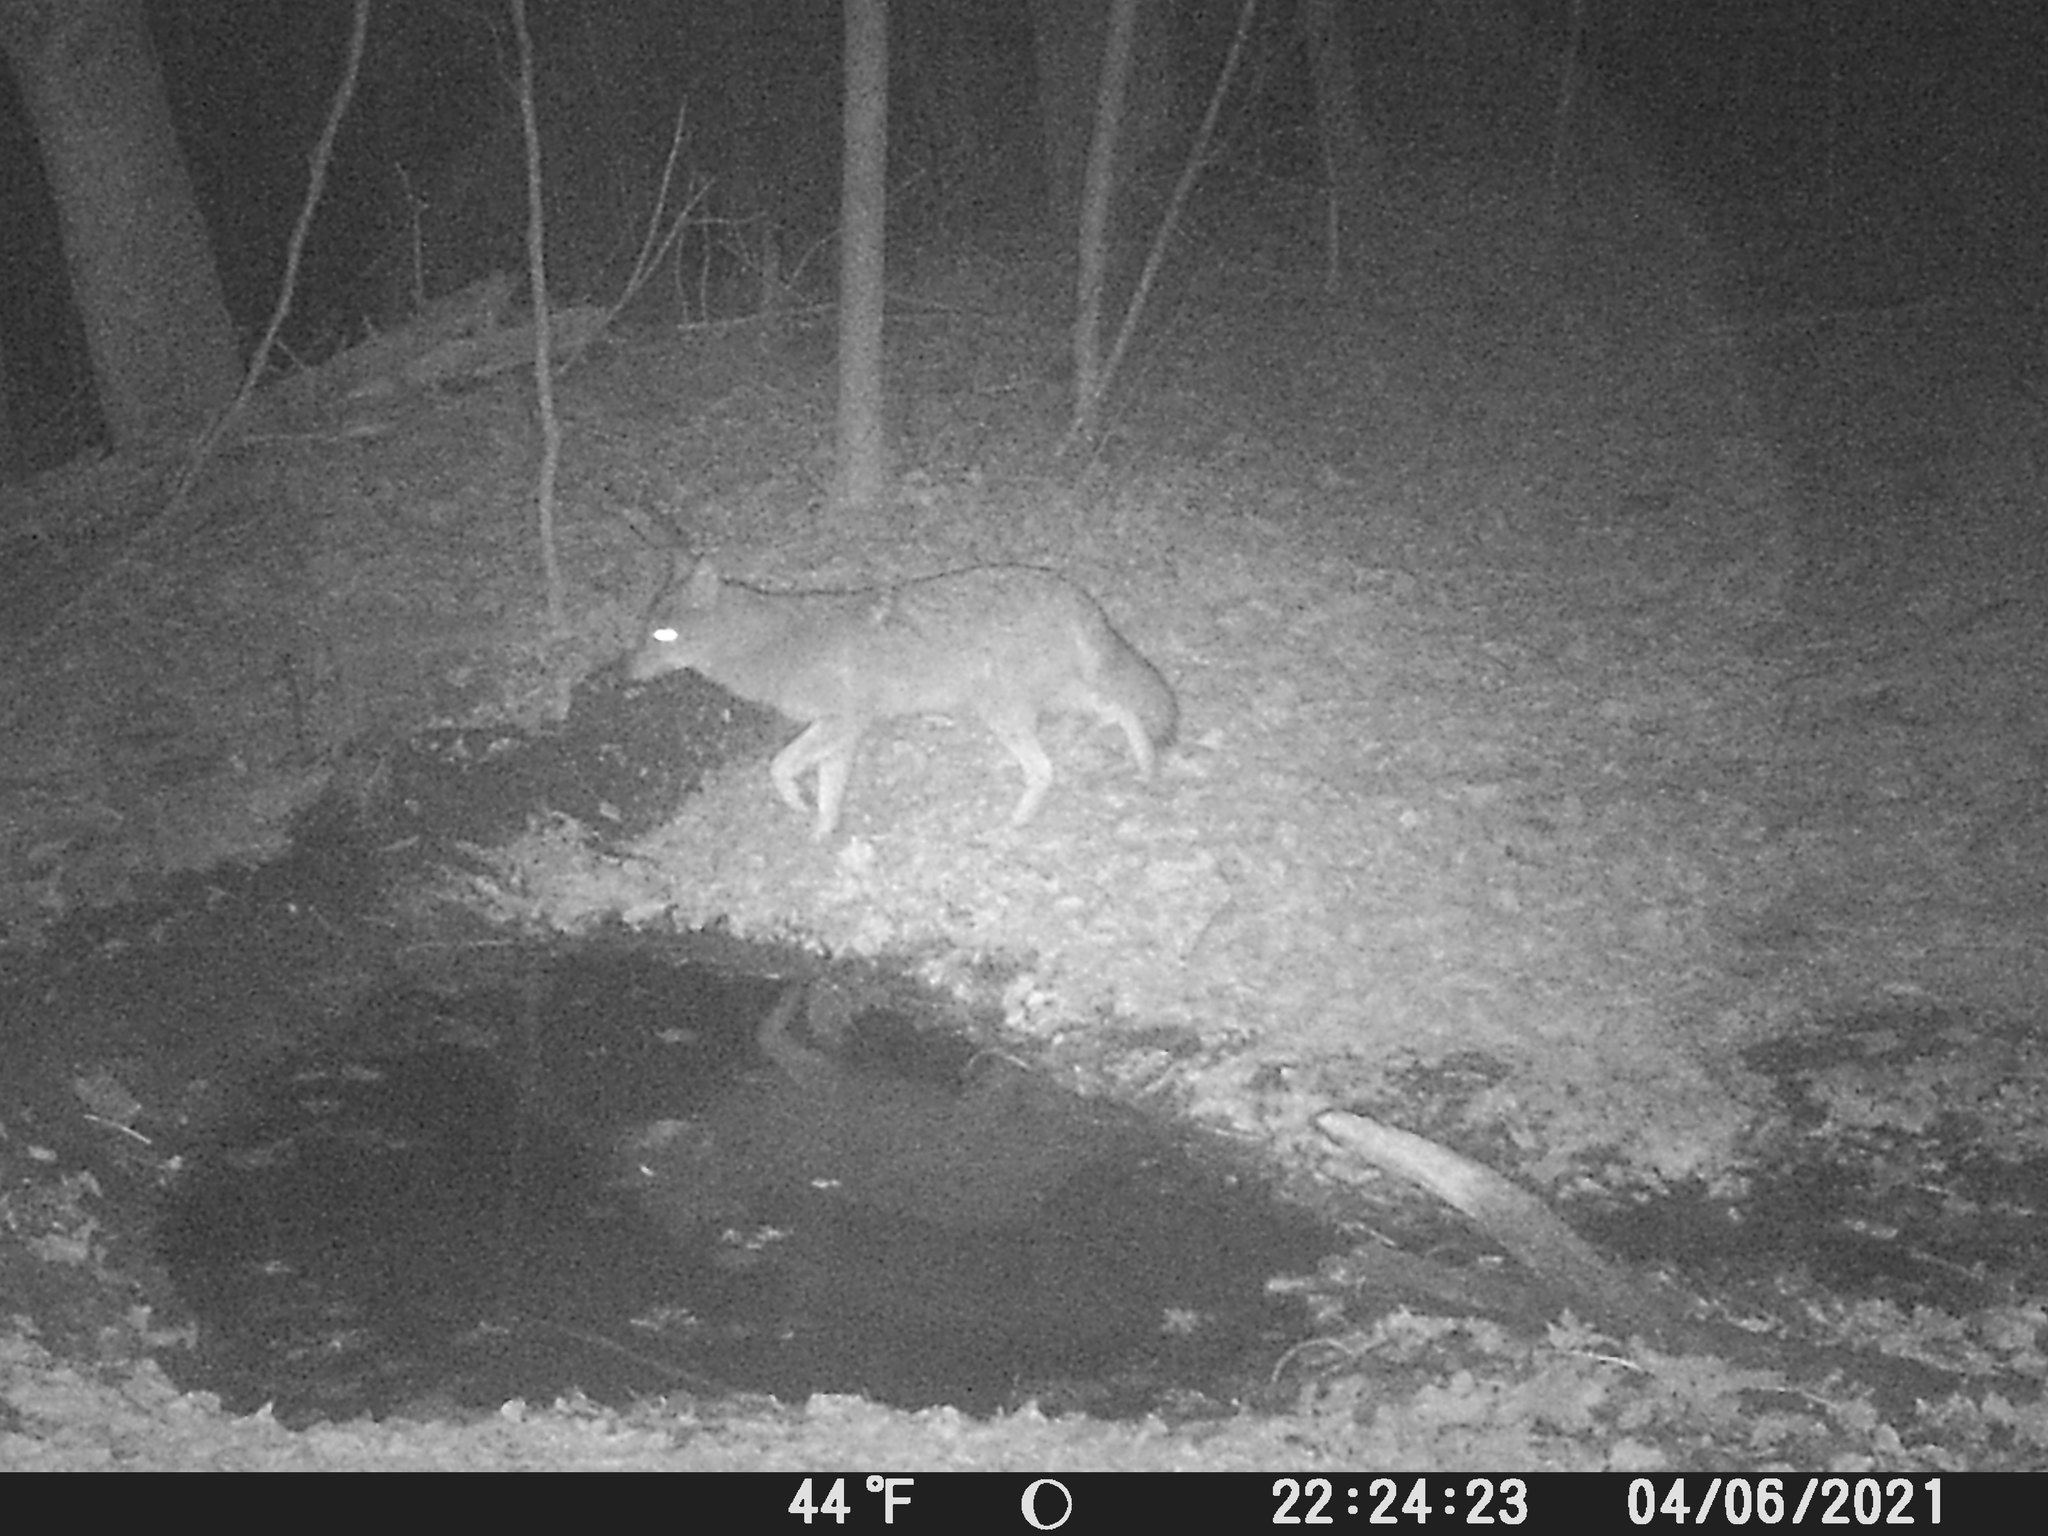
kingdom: Animalia
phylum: Chordata
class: Mammalia
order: Carnivora
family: Canidae
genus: Canis
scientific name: Canis latrans
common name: Coyote
